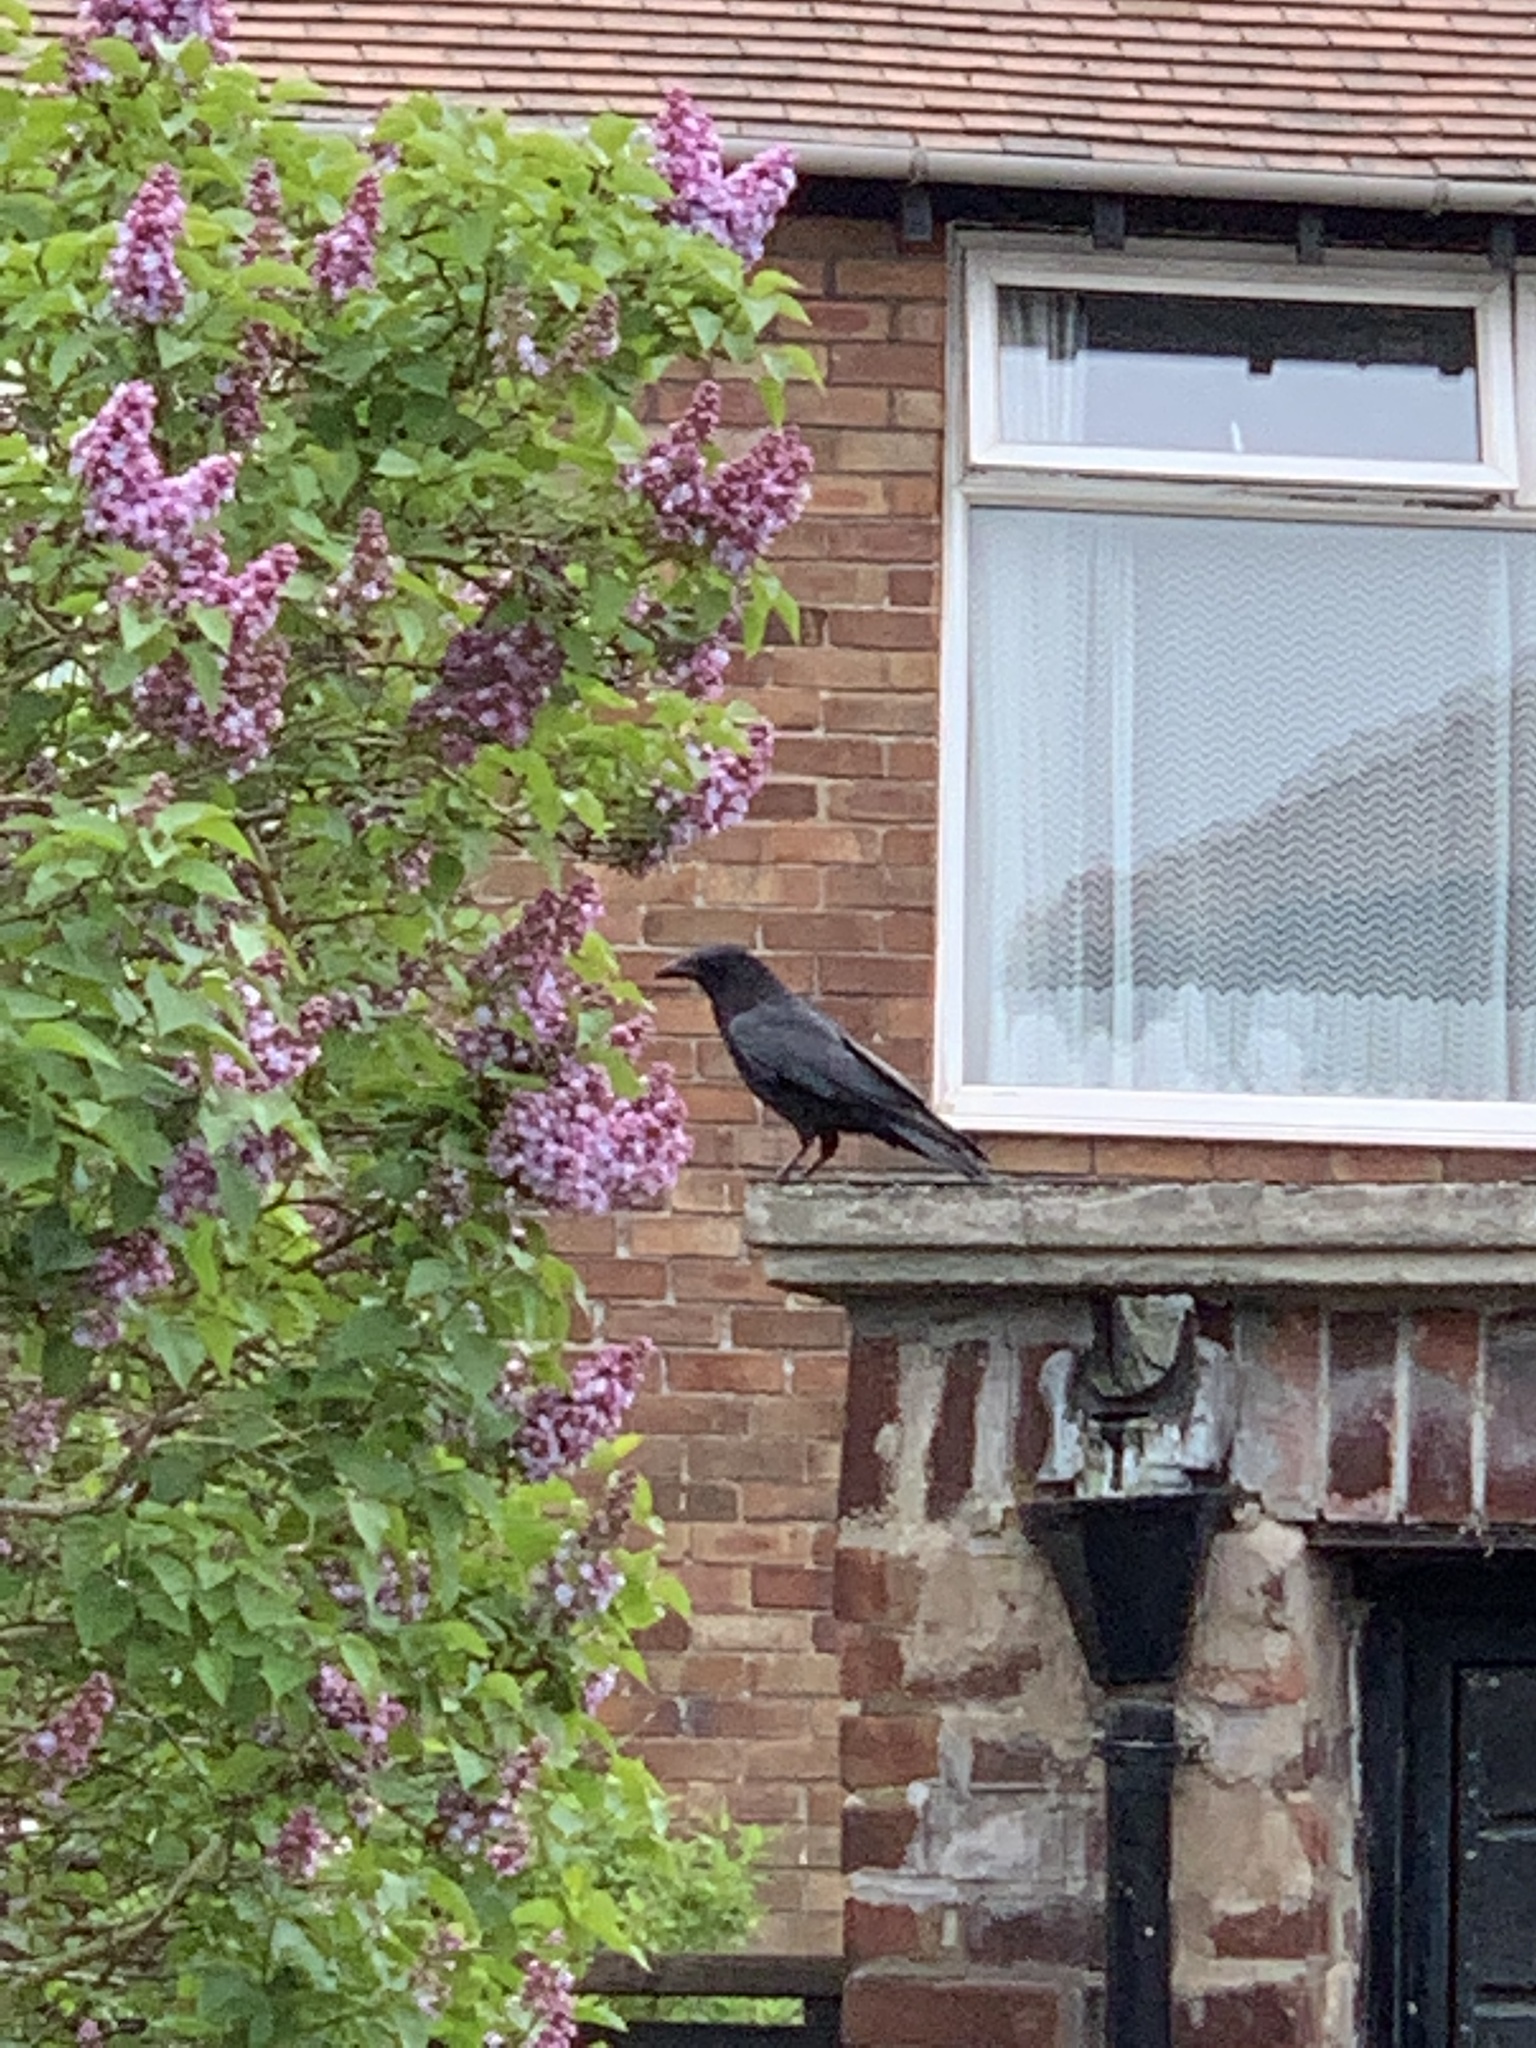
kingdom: Animalia
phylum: Chordata
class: Aves
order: Passeriformes
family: Corvidae
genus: Corvus
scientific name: Corvus corone
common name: Carrion crow
